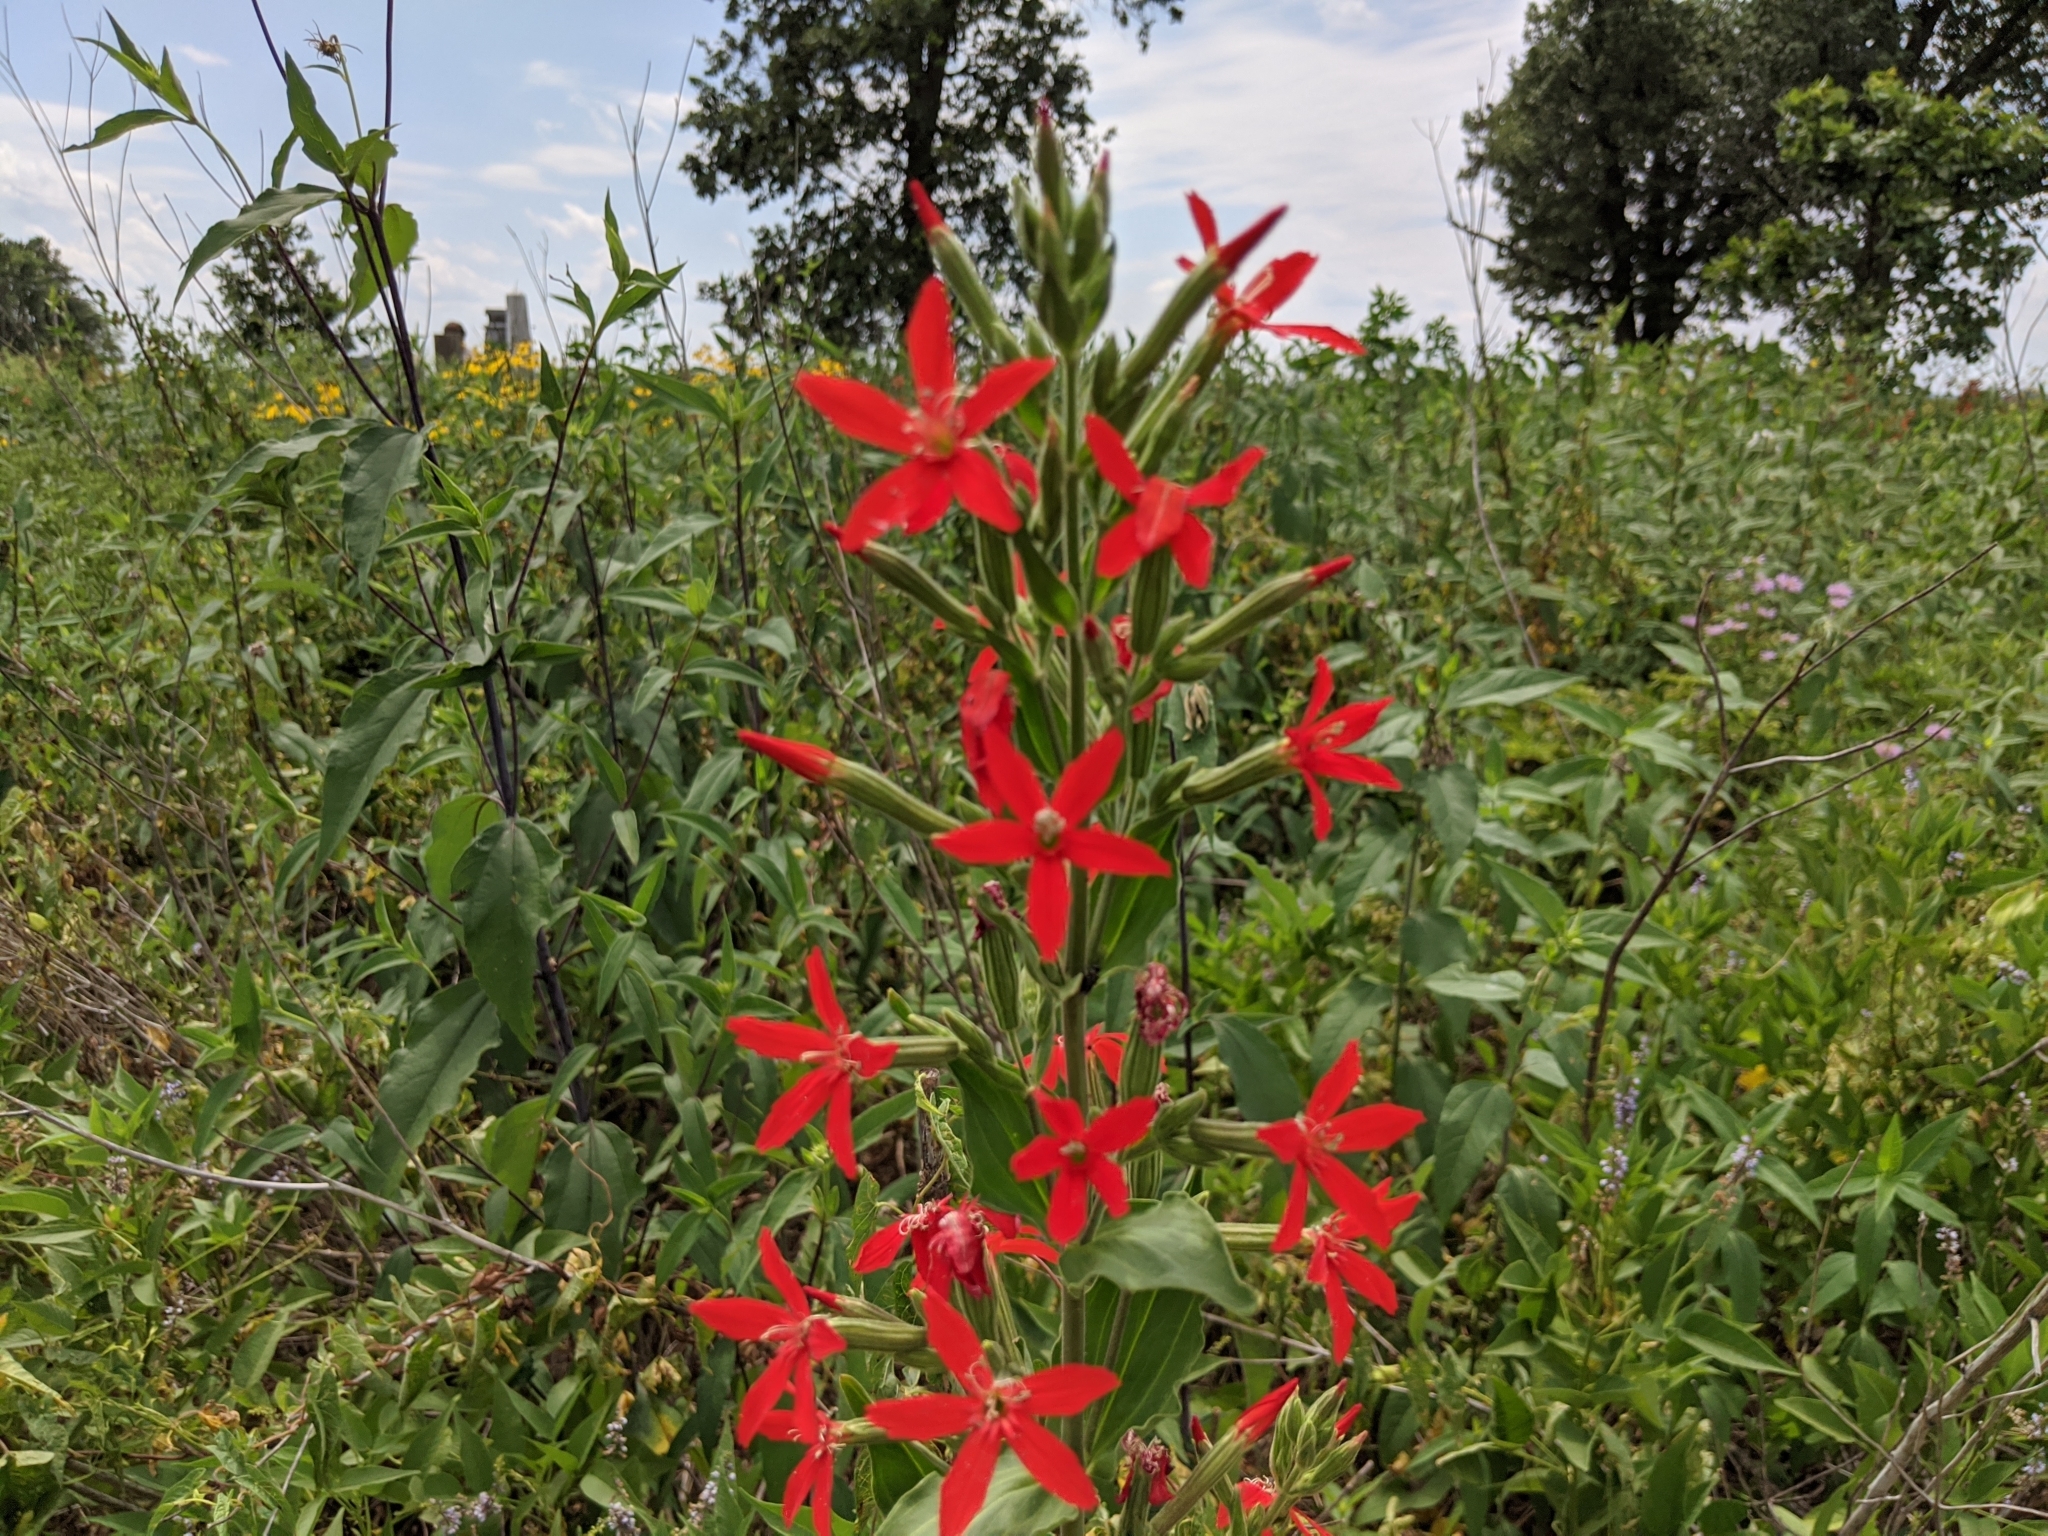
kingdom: Plantae
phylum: Tracheophyta
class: Magnoliopsida
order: Caryophyllales
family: Caryophyllaceae
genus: Silene
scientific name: Silene regia
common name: Royal catchfly
